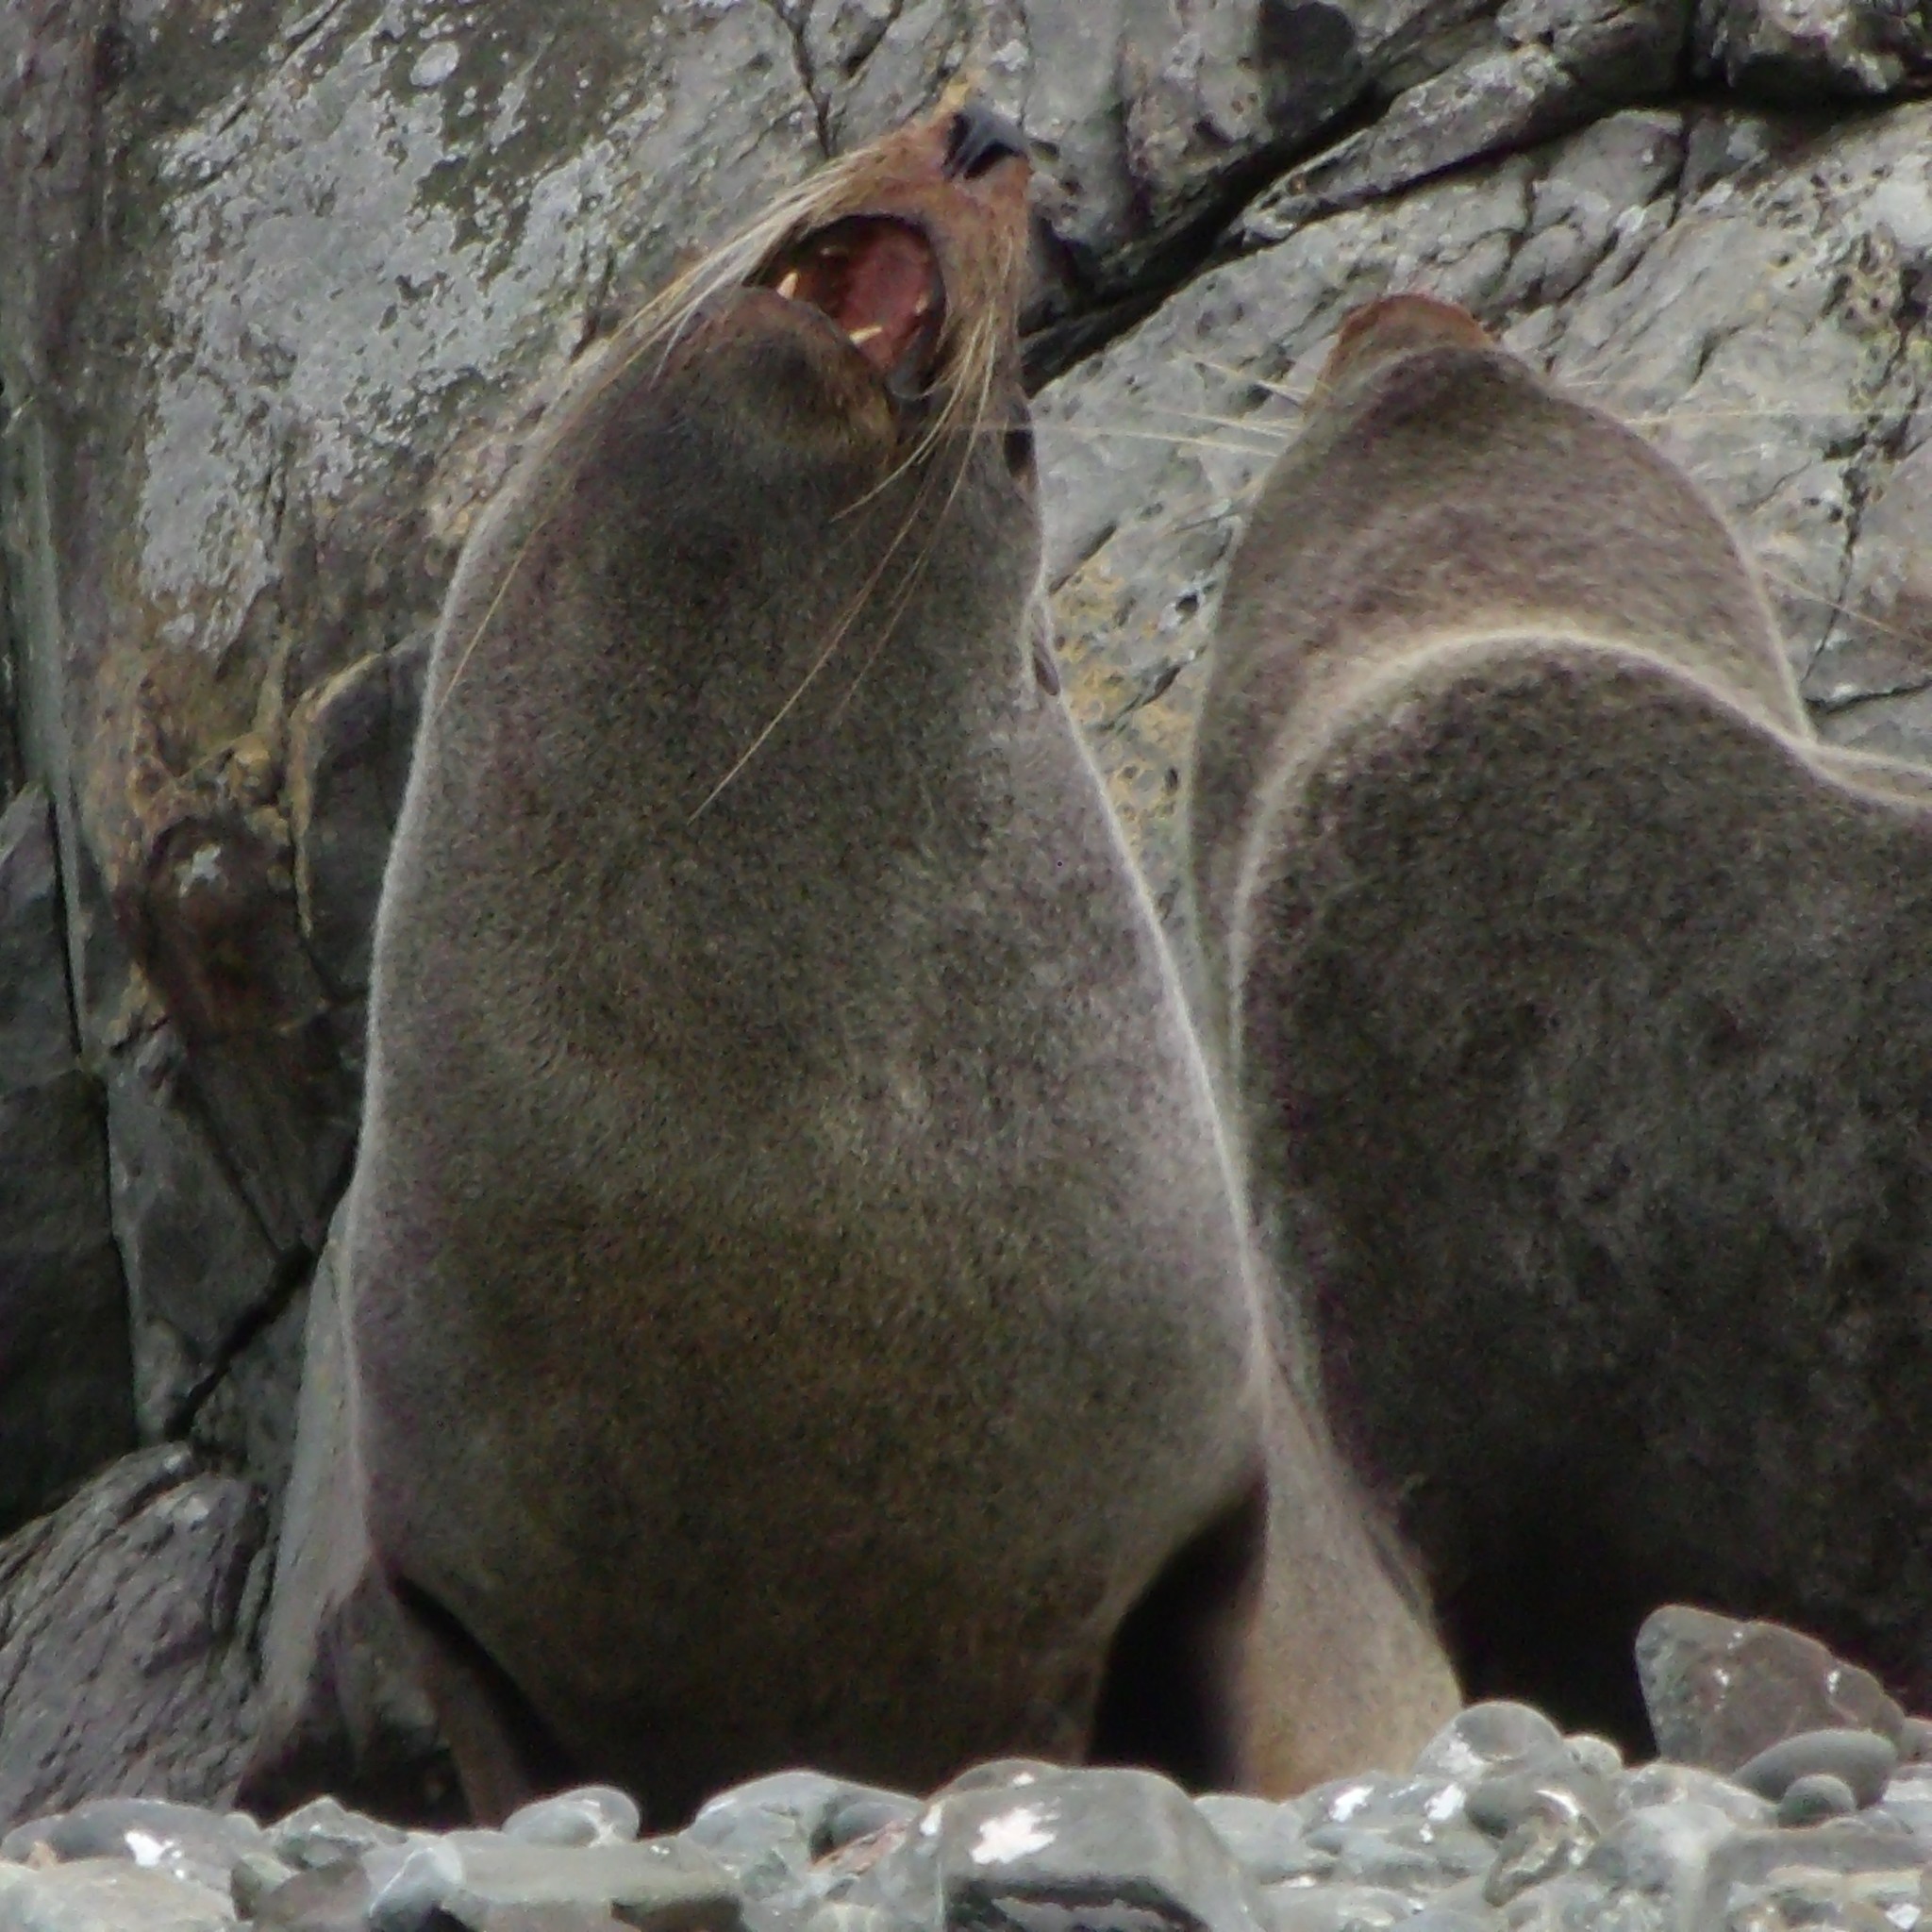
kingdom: Animalia
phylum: Chordata
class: Mammalia
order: Carnivora
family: Otariidae
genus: Arctocephalus
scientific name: Arctocephalus forsteri
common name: New zealand fur seal
